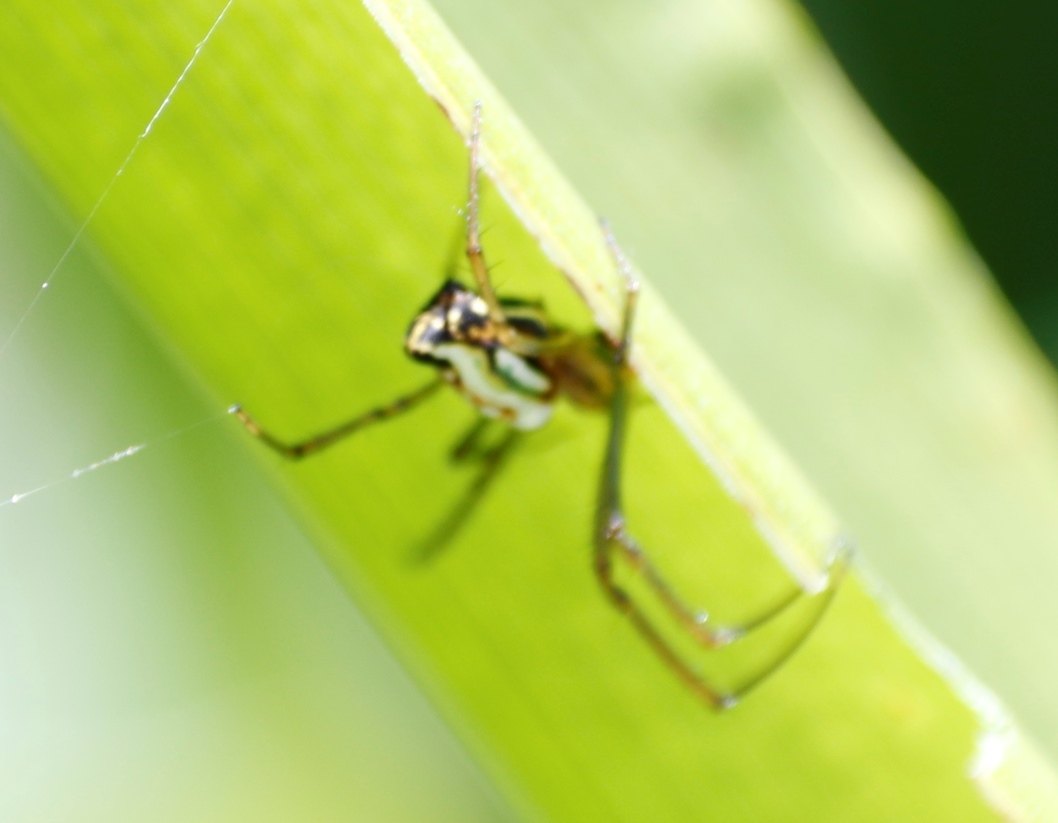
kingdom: Animalia
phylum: Arthropoda
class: Arachnida
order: Araneae
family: Tetragnathidae
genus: Leucauge
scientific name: Leucauge festiva
